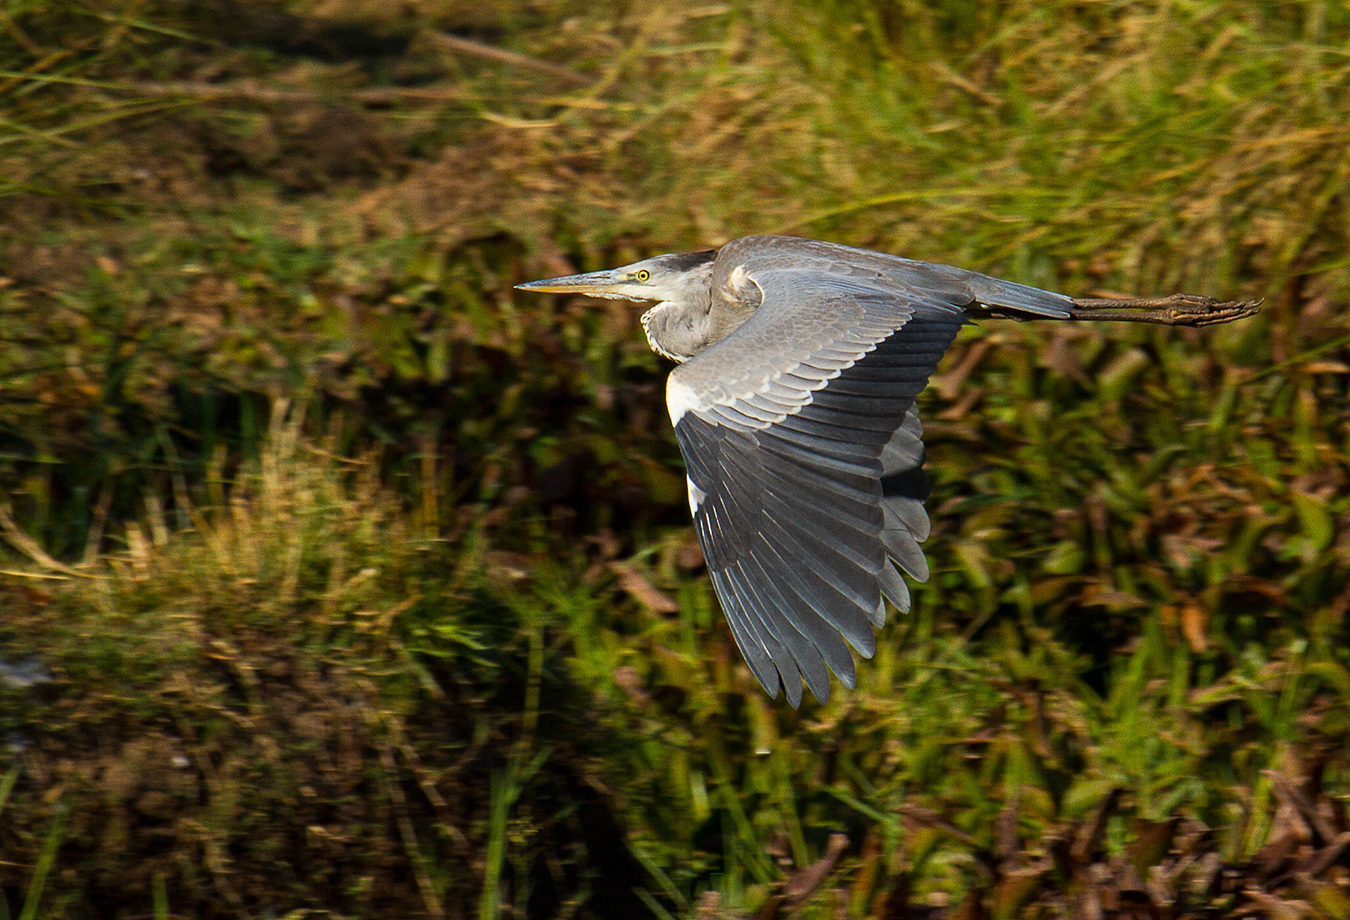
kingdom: Animalia
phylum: Chordata
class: Aves
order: Pelecaniformes
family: Ardeidae
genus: Ardea
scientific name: Ardea cinerea
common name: Grey heron
